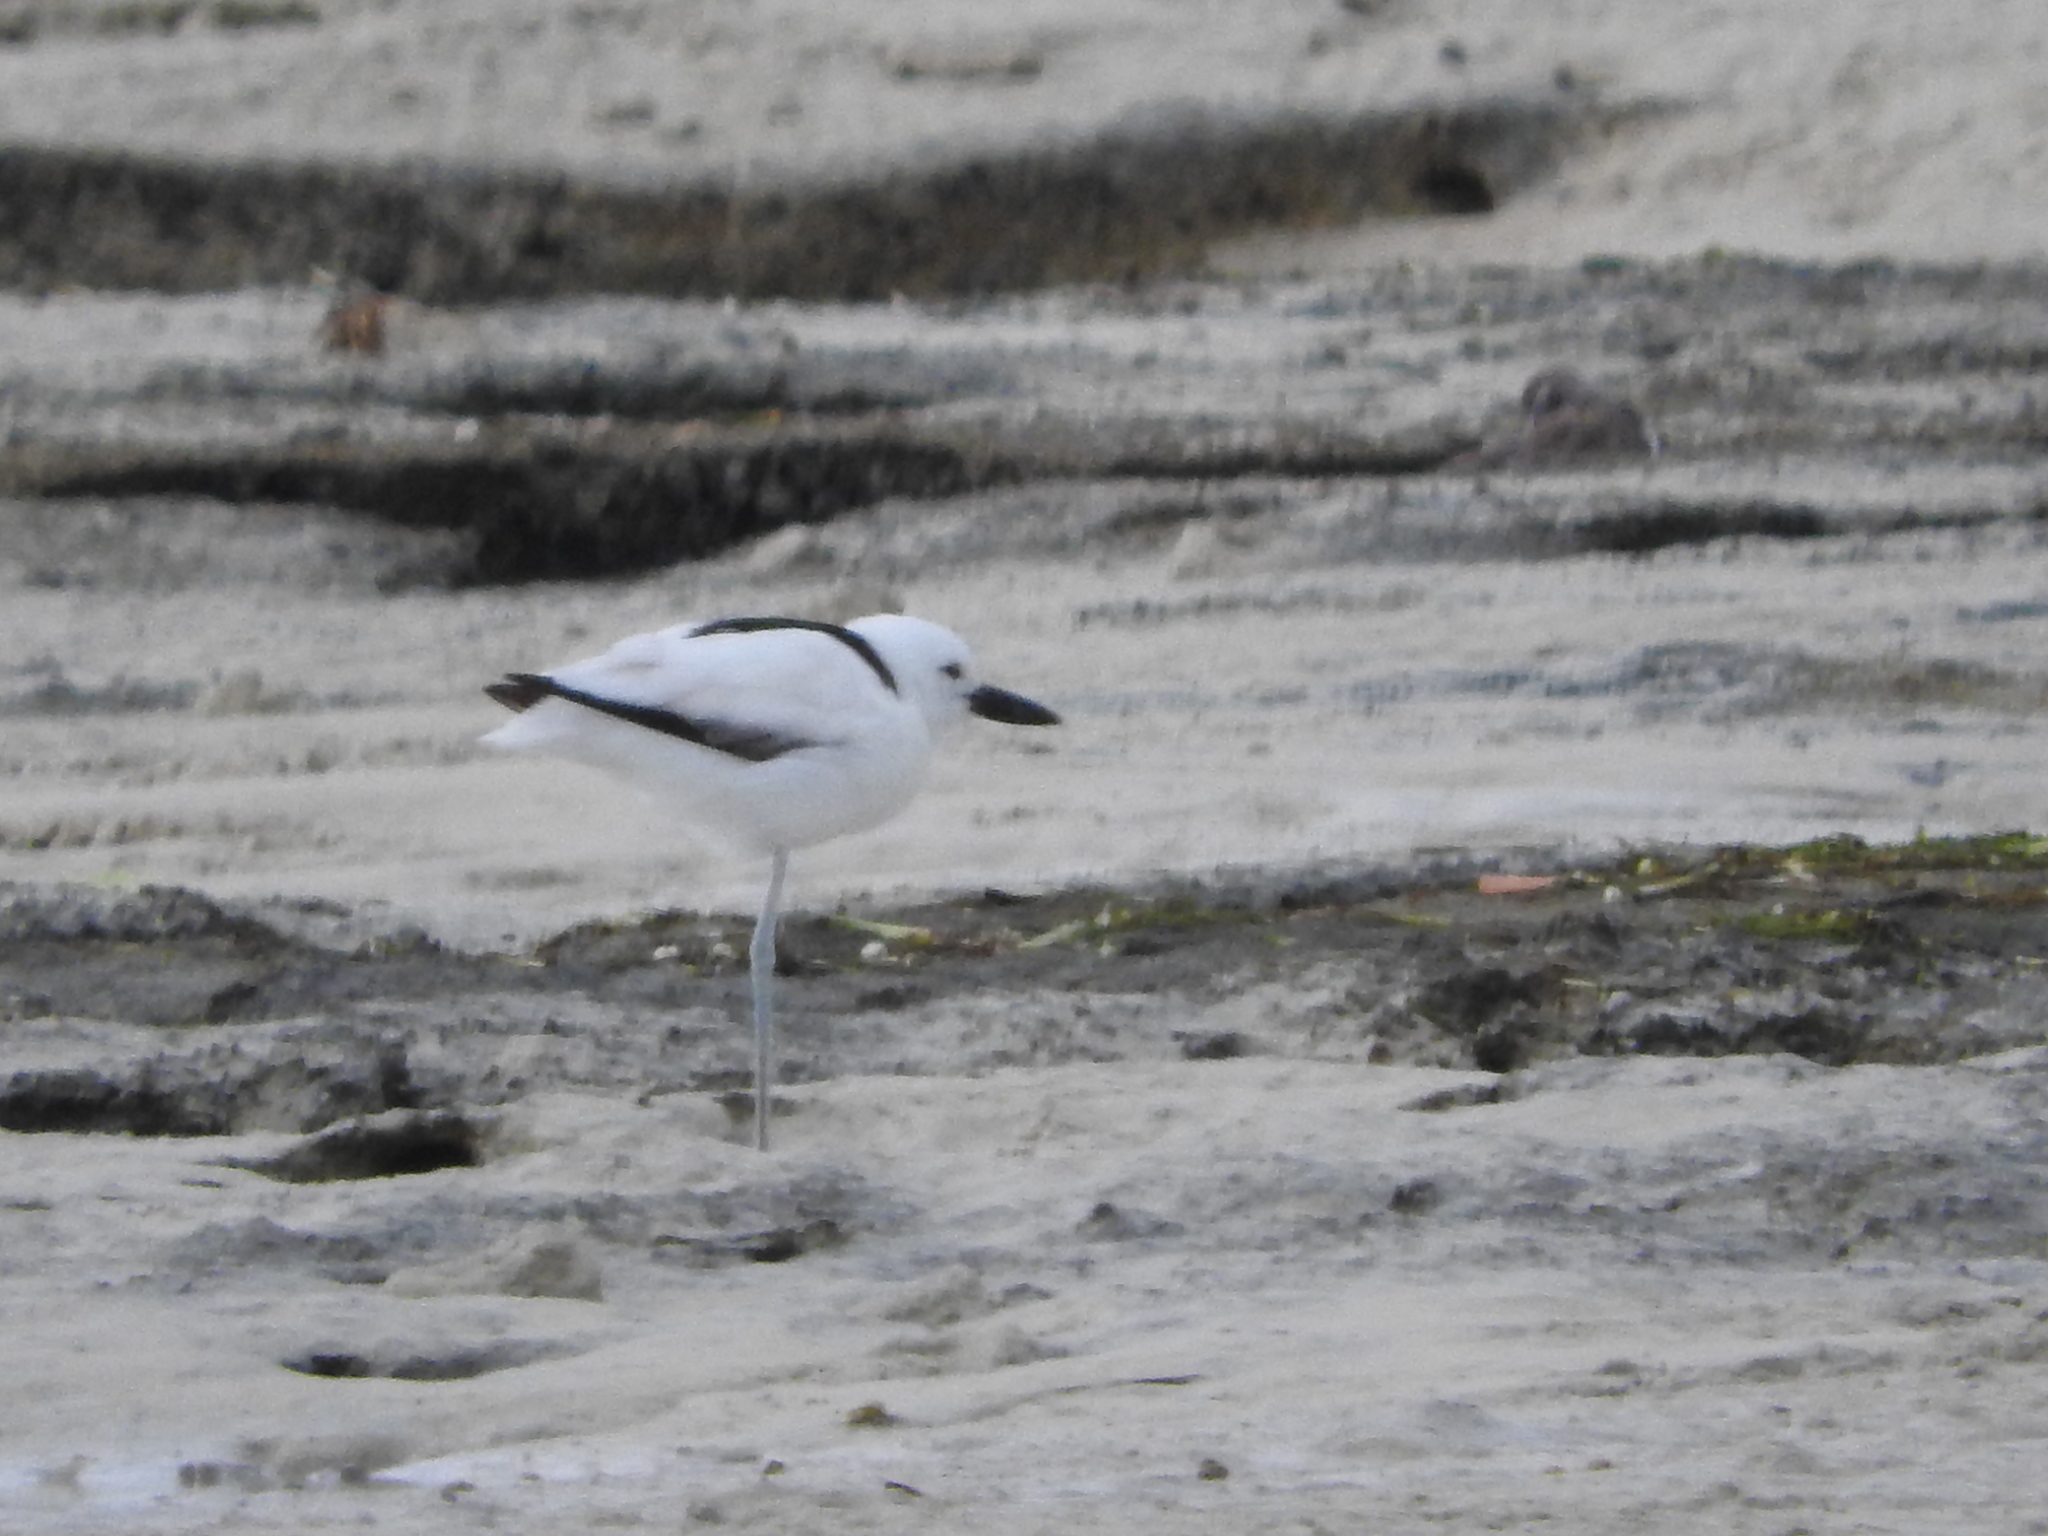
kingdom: Animalia
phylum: Chordata
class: Aves
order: Charadriiformes
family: Dromadidae
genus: Dromas
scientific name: Dromas ardeola
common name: Crab-plover
